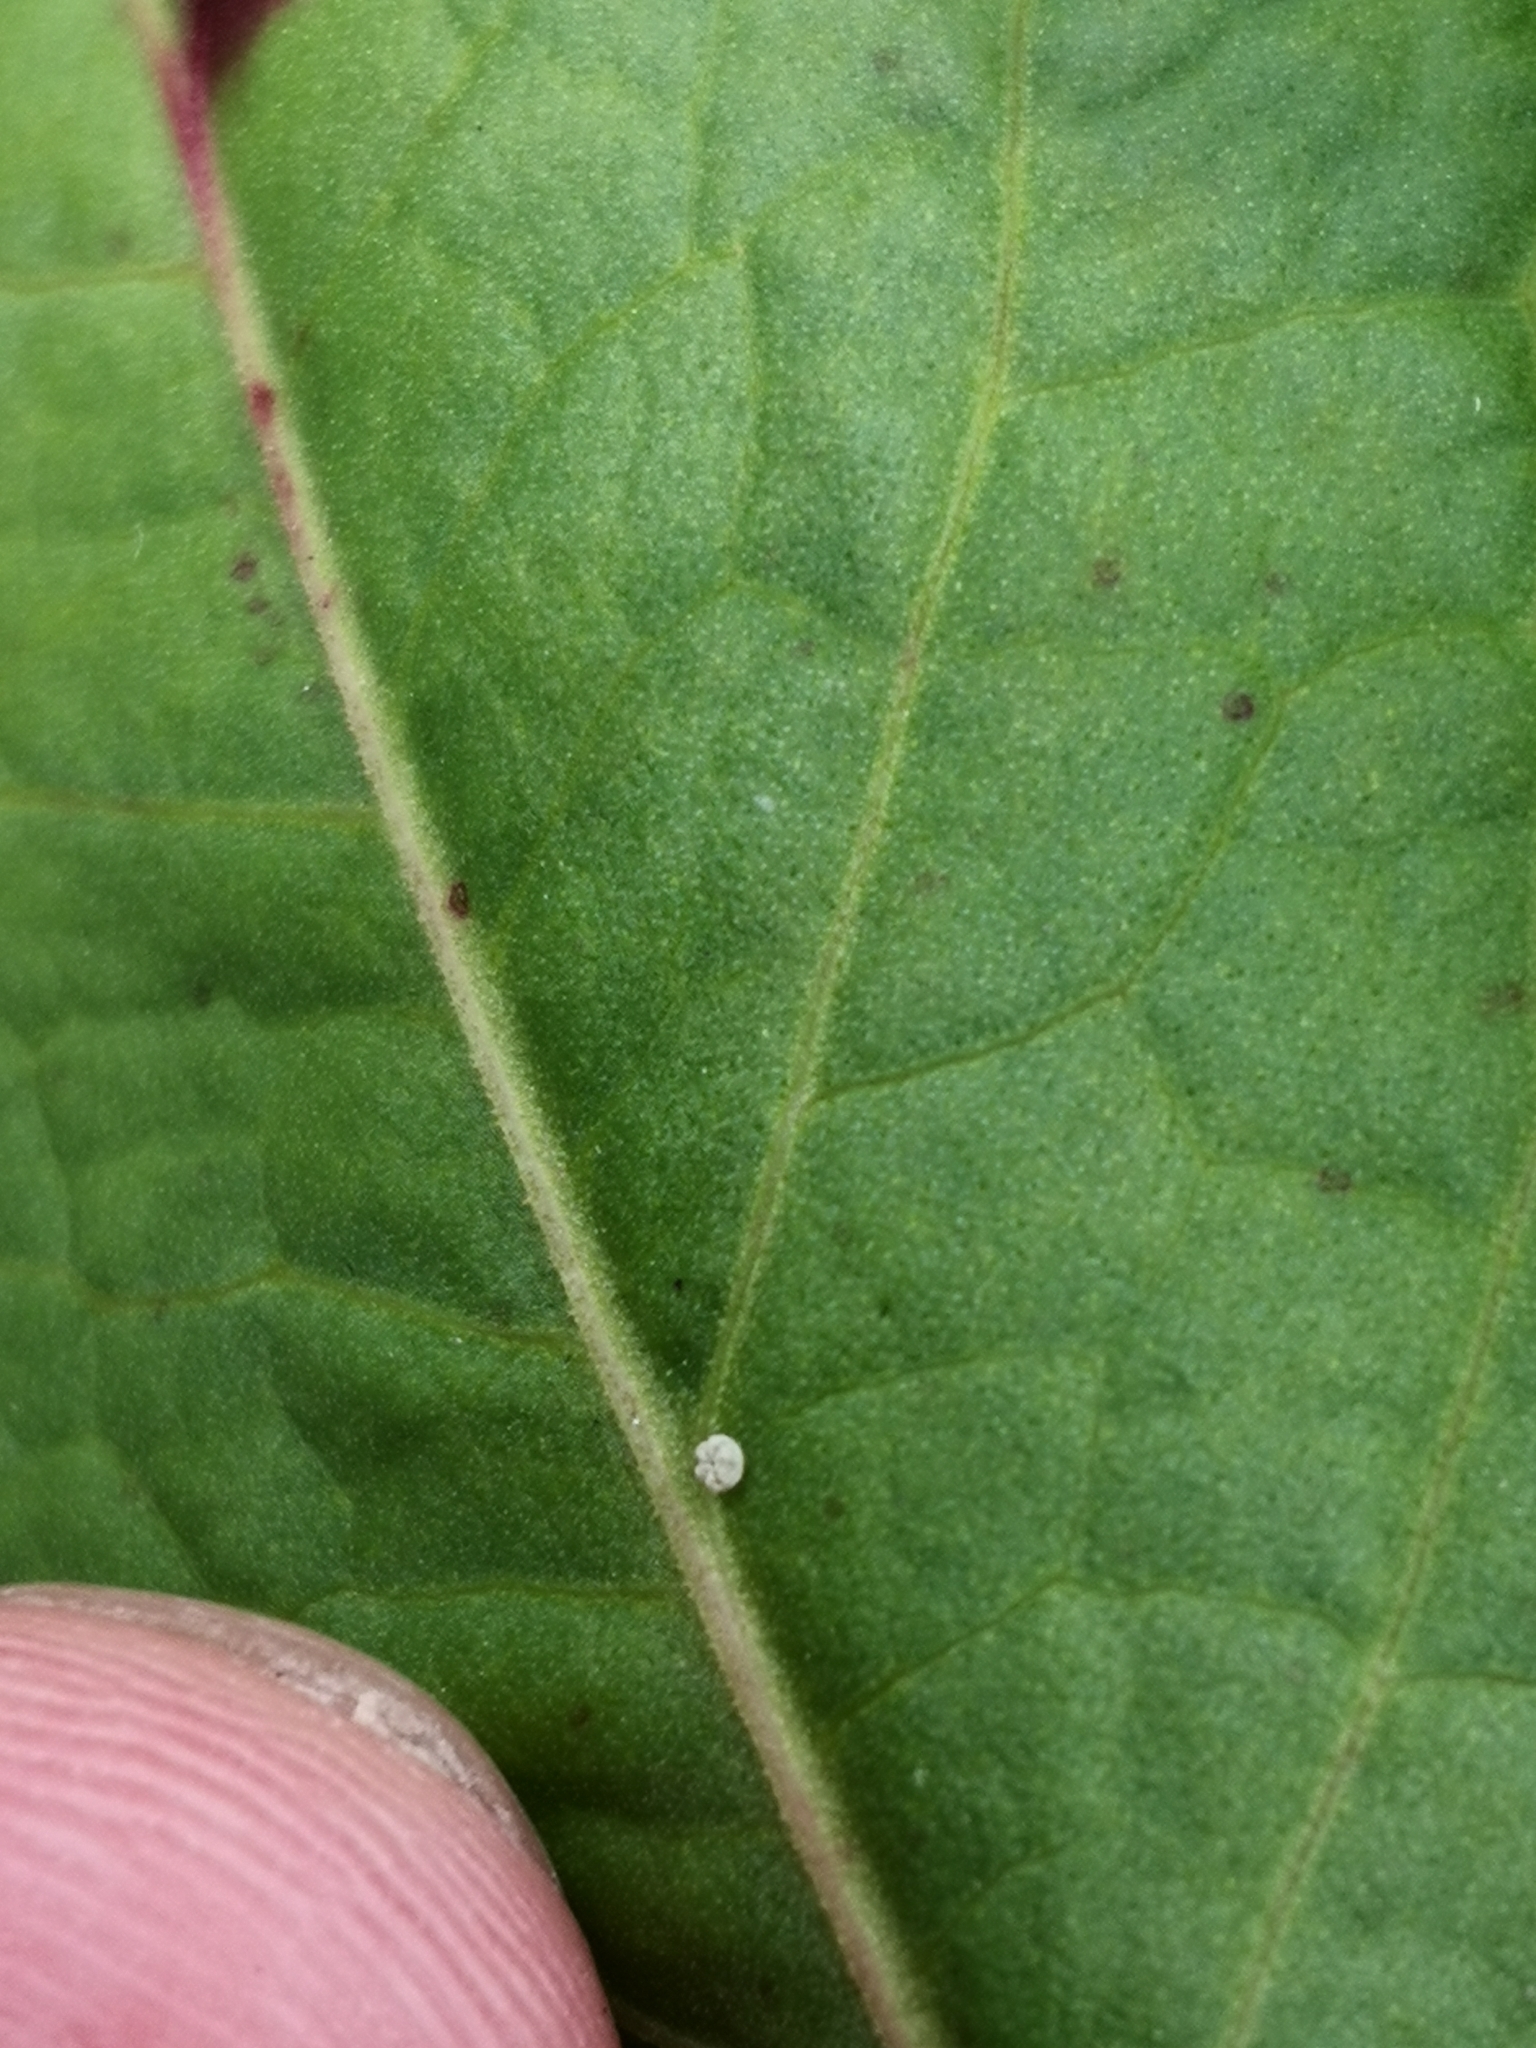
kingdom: Animalia
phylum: Arthropoda
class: Insecta
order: Lepidoptera
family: Lycaenidae
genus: Lycaena
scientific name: Lycaena dispar
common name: Large copper
